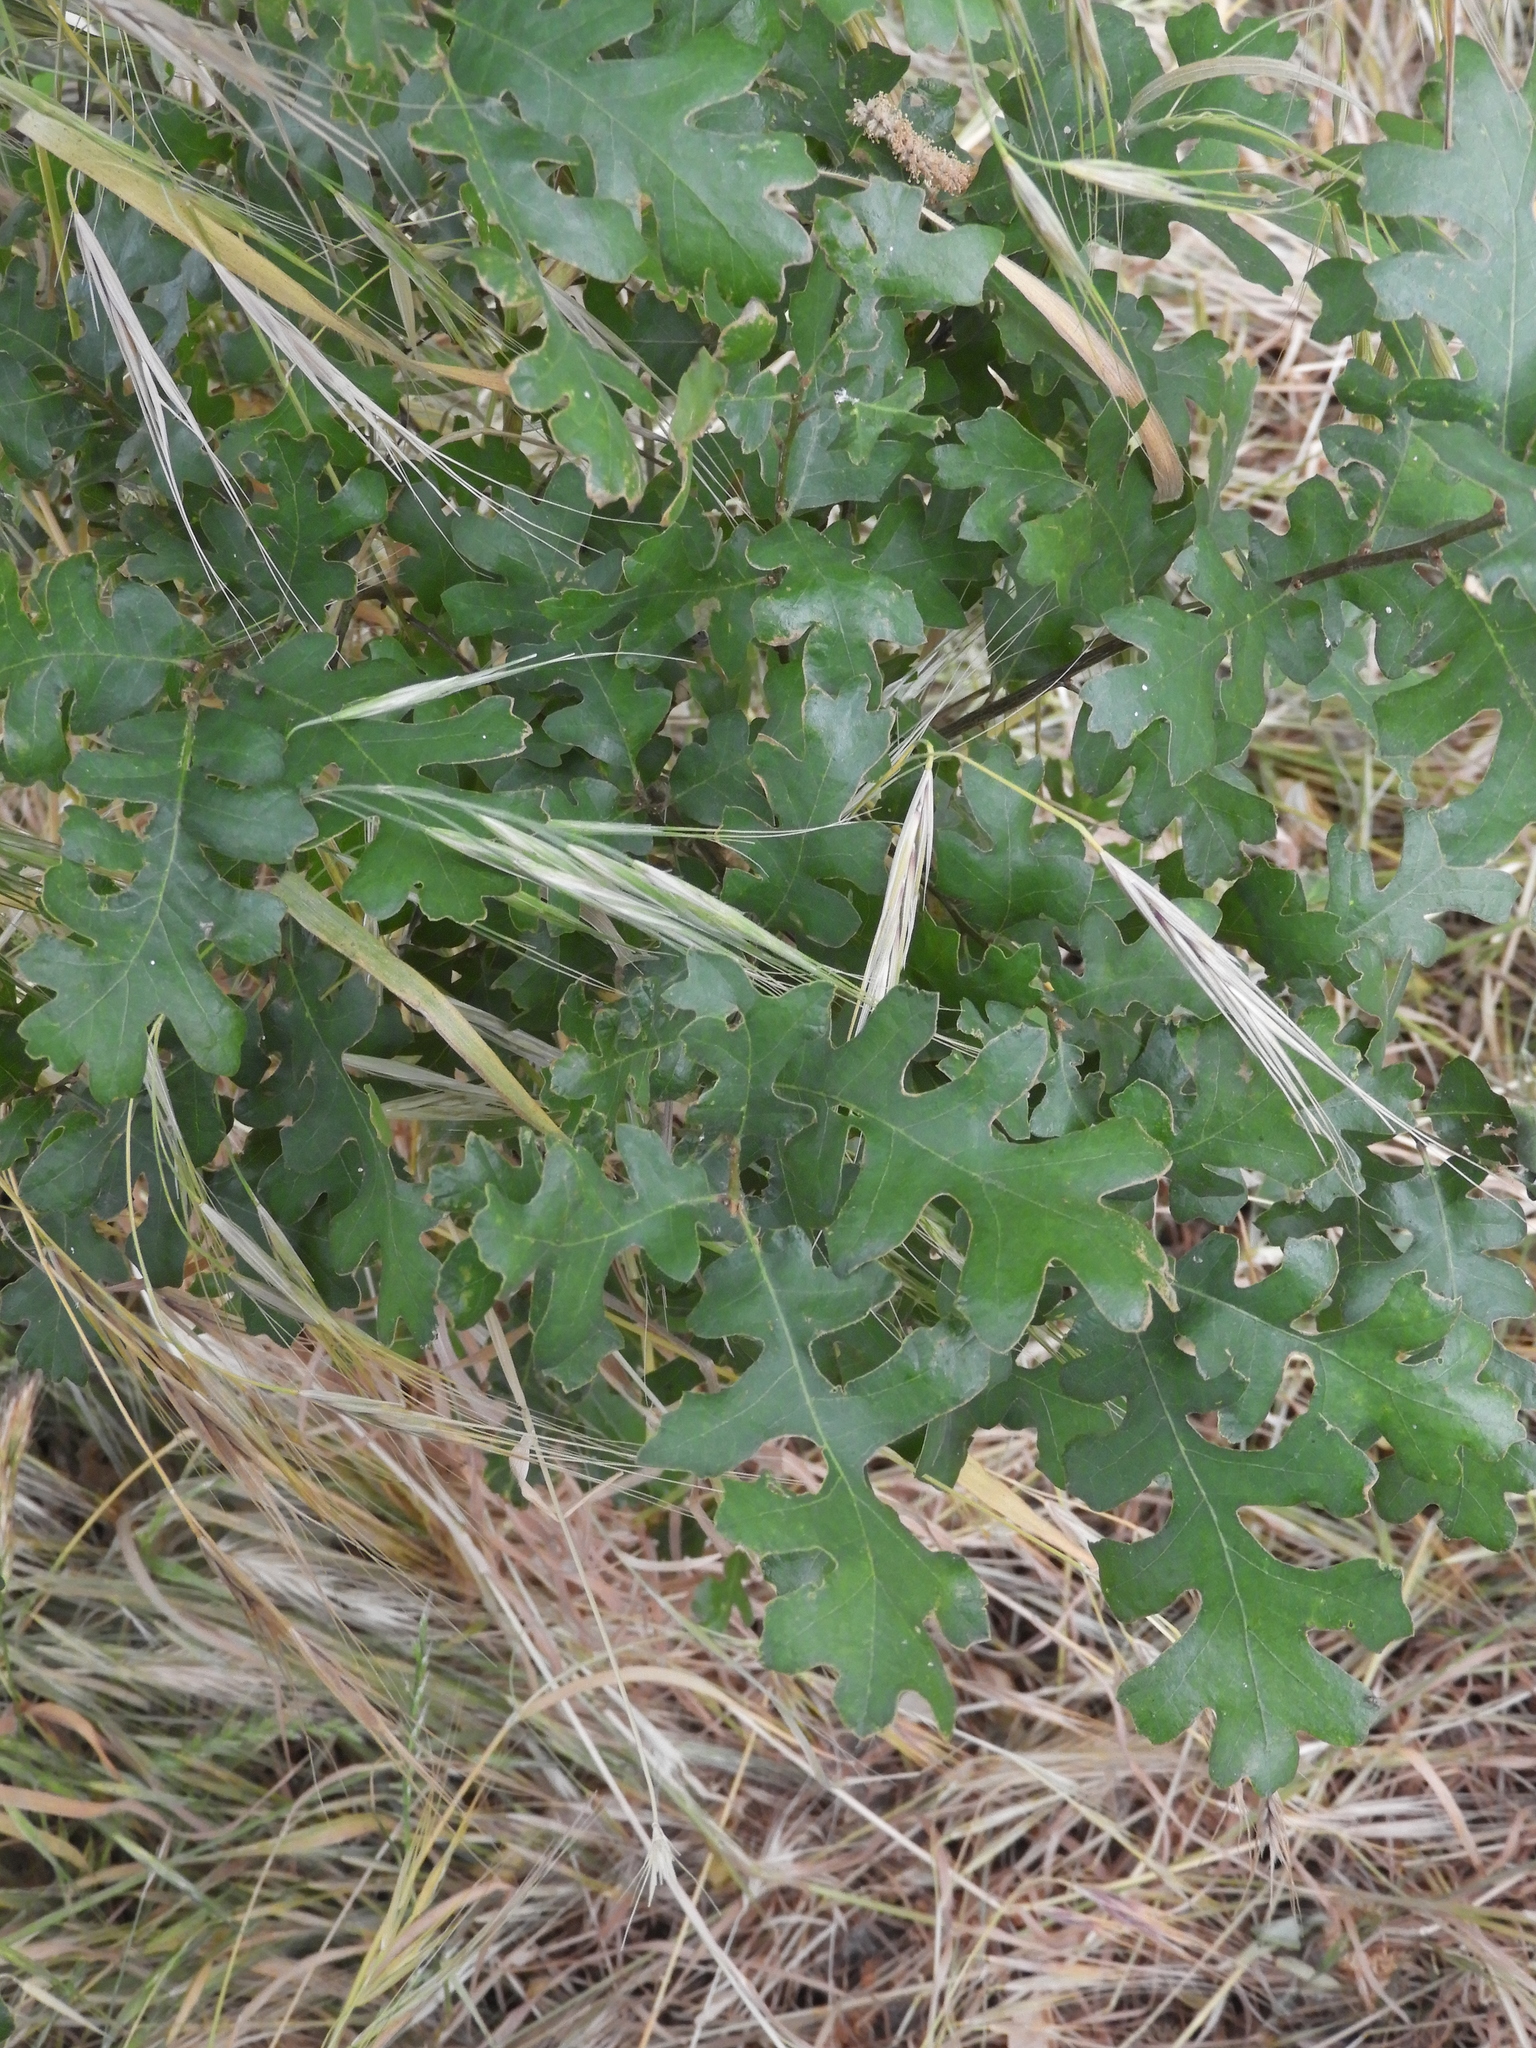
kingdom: Plantae
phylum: Tracheophyta
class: Magnoliopsida
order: Fagales
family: Fagaceae
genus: Quercus
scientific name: Quercus lobata
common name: Valley oak
